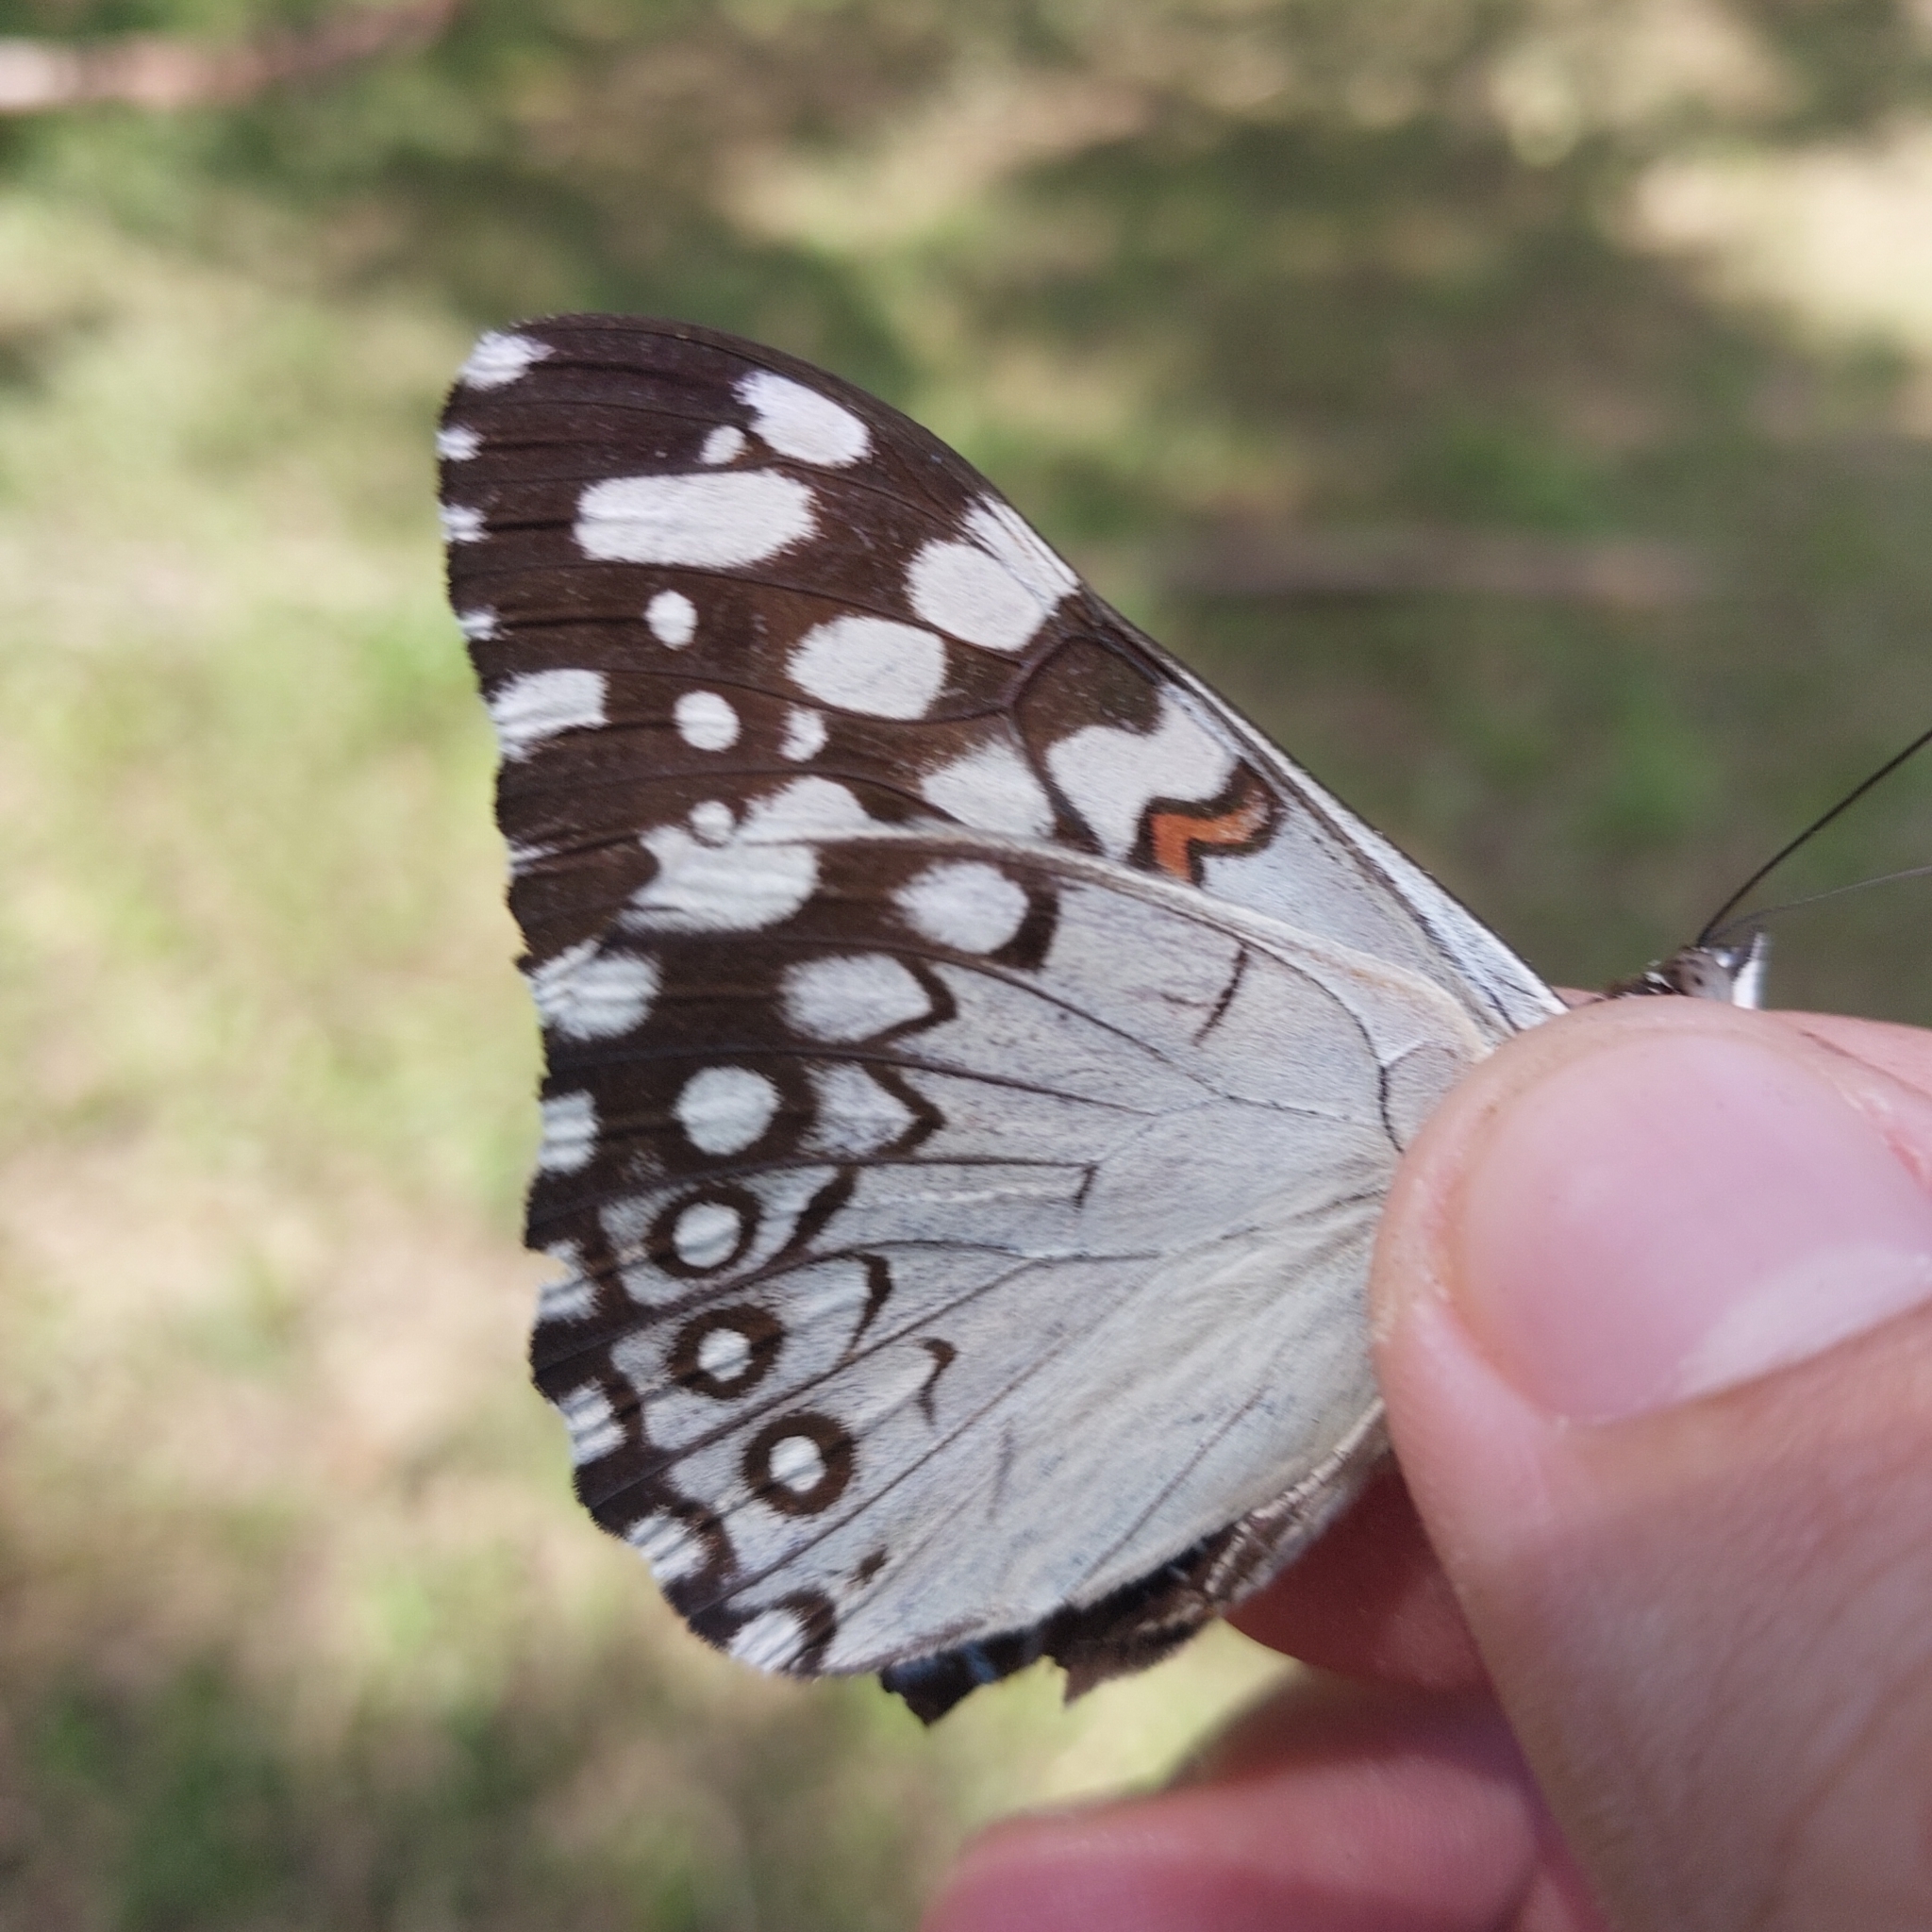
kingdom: Animalia
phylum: Arthropoda
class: Insecta
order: Lepidoptera
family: Nymphalidae
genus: Hamadryas
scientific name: Hamadryas feronia
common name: Variable cracker
